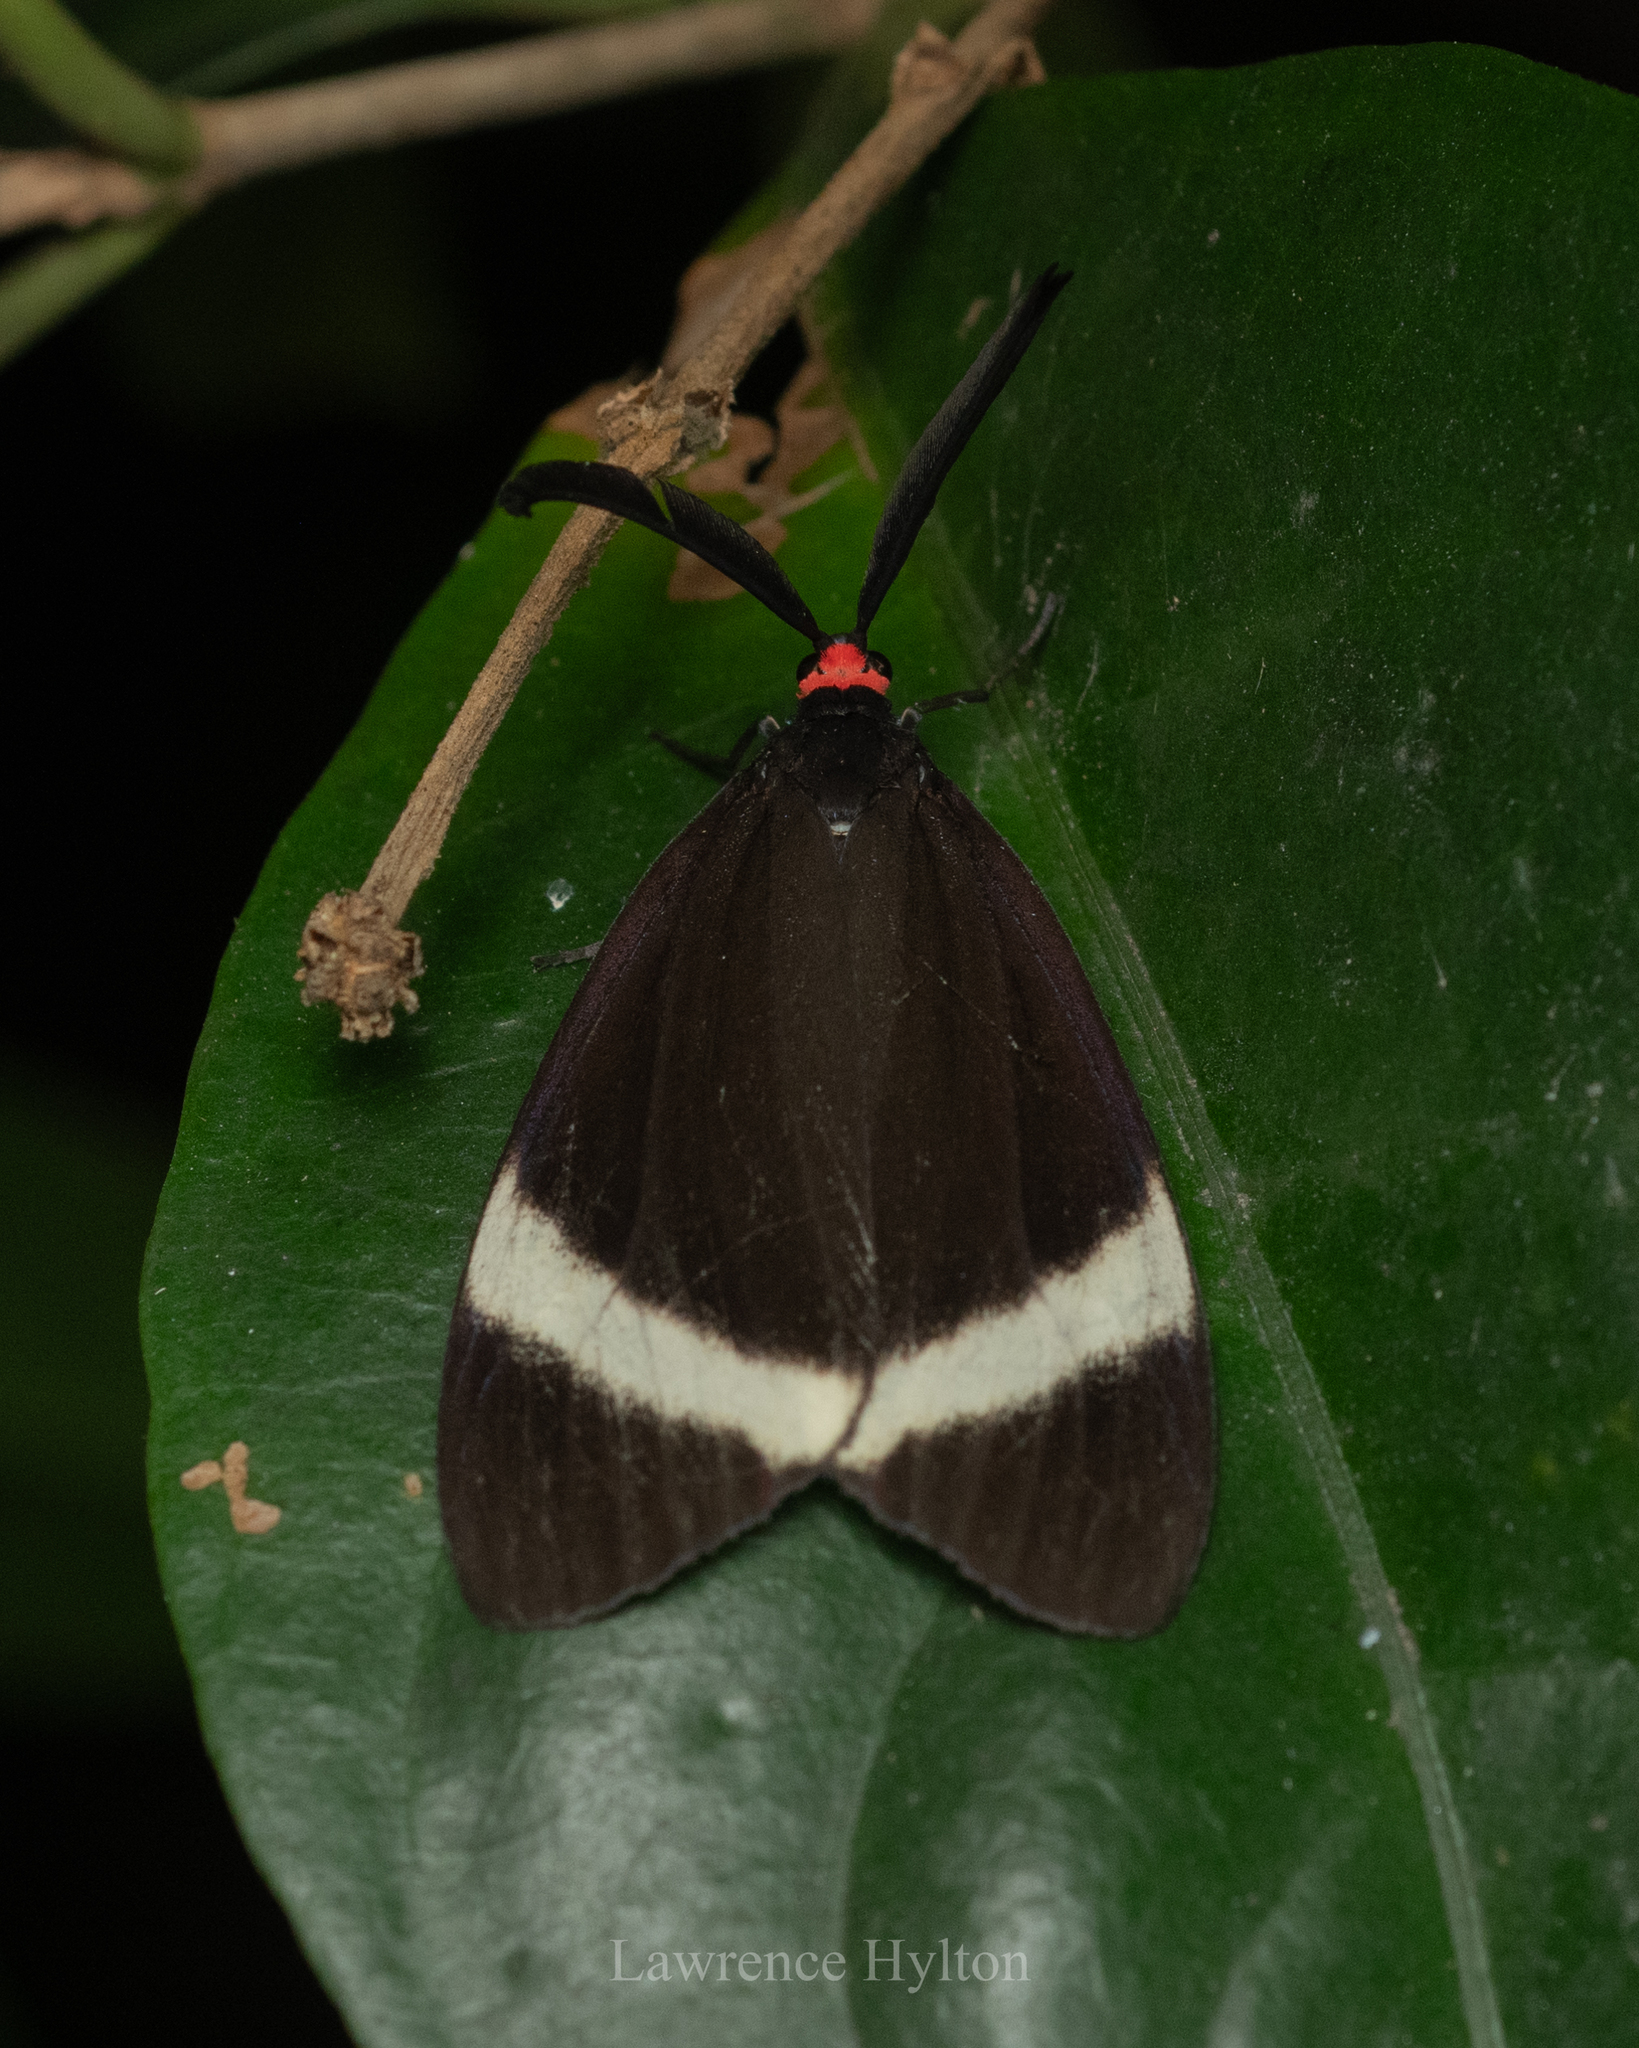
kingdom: Animalia
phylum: Arthropoda
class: Insecta
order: Lepidoptera
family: Zygaenidae
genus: Pidorus
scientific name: Pidorus glaucopis
